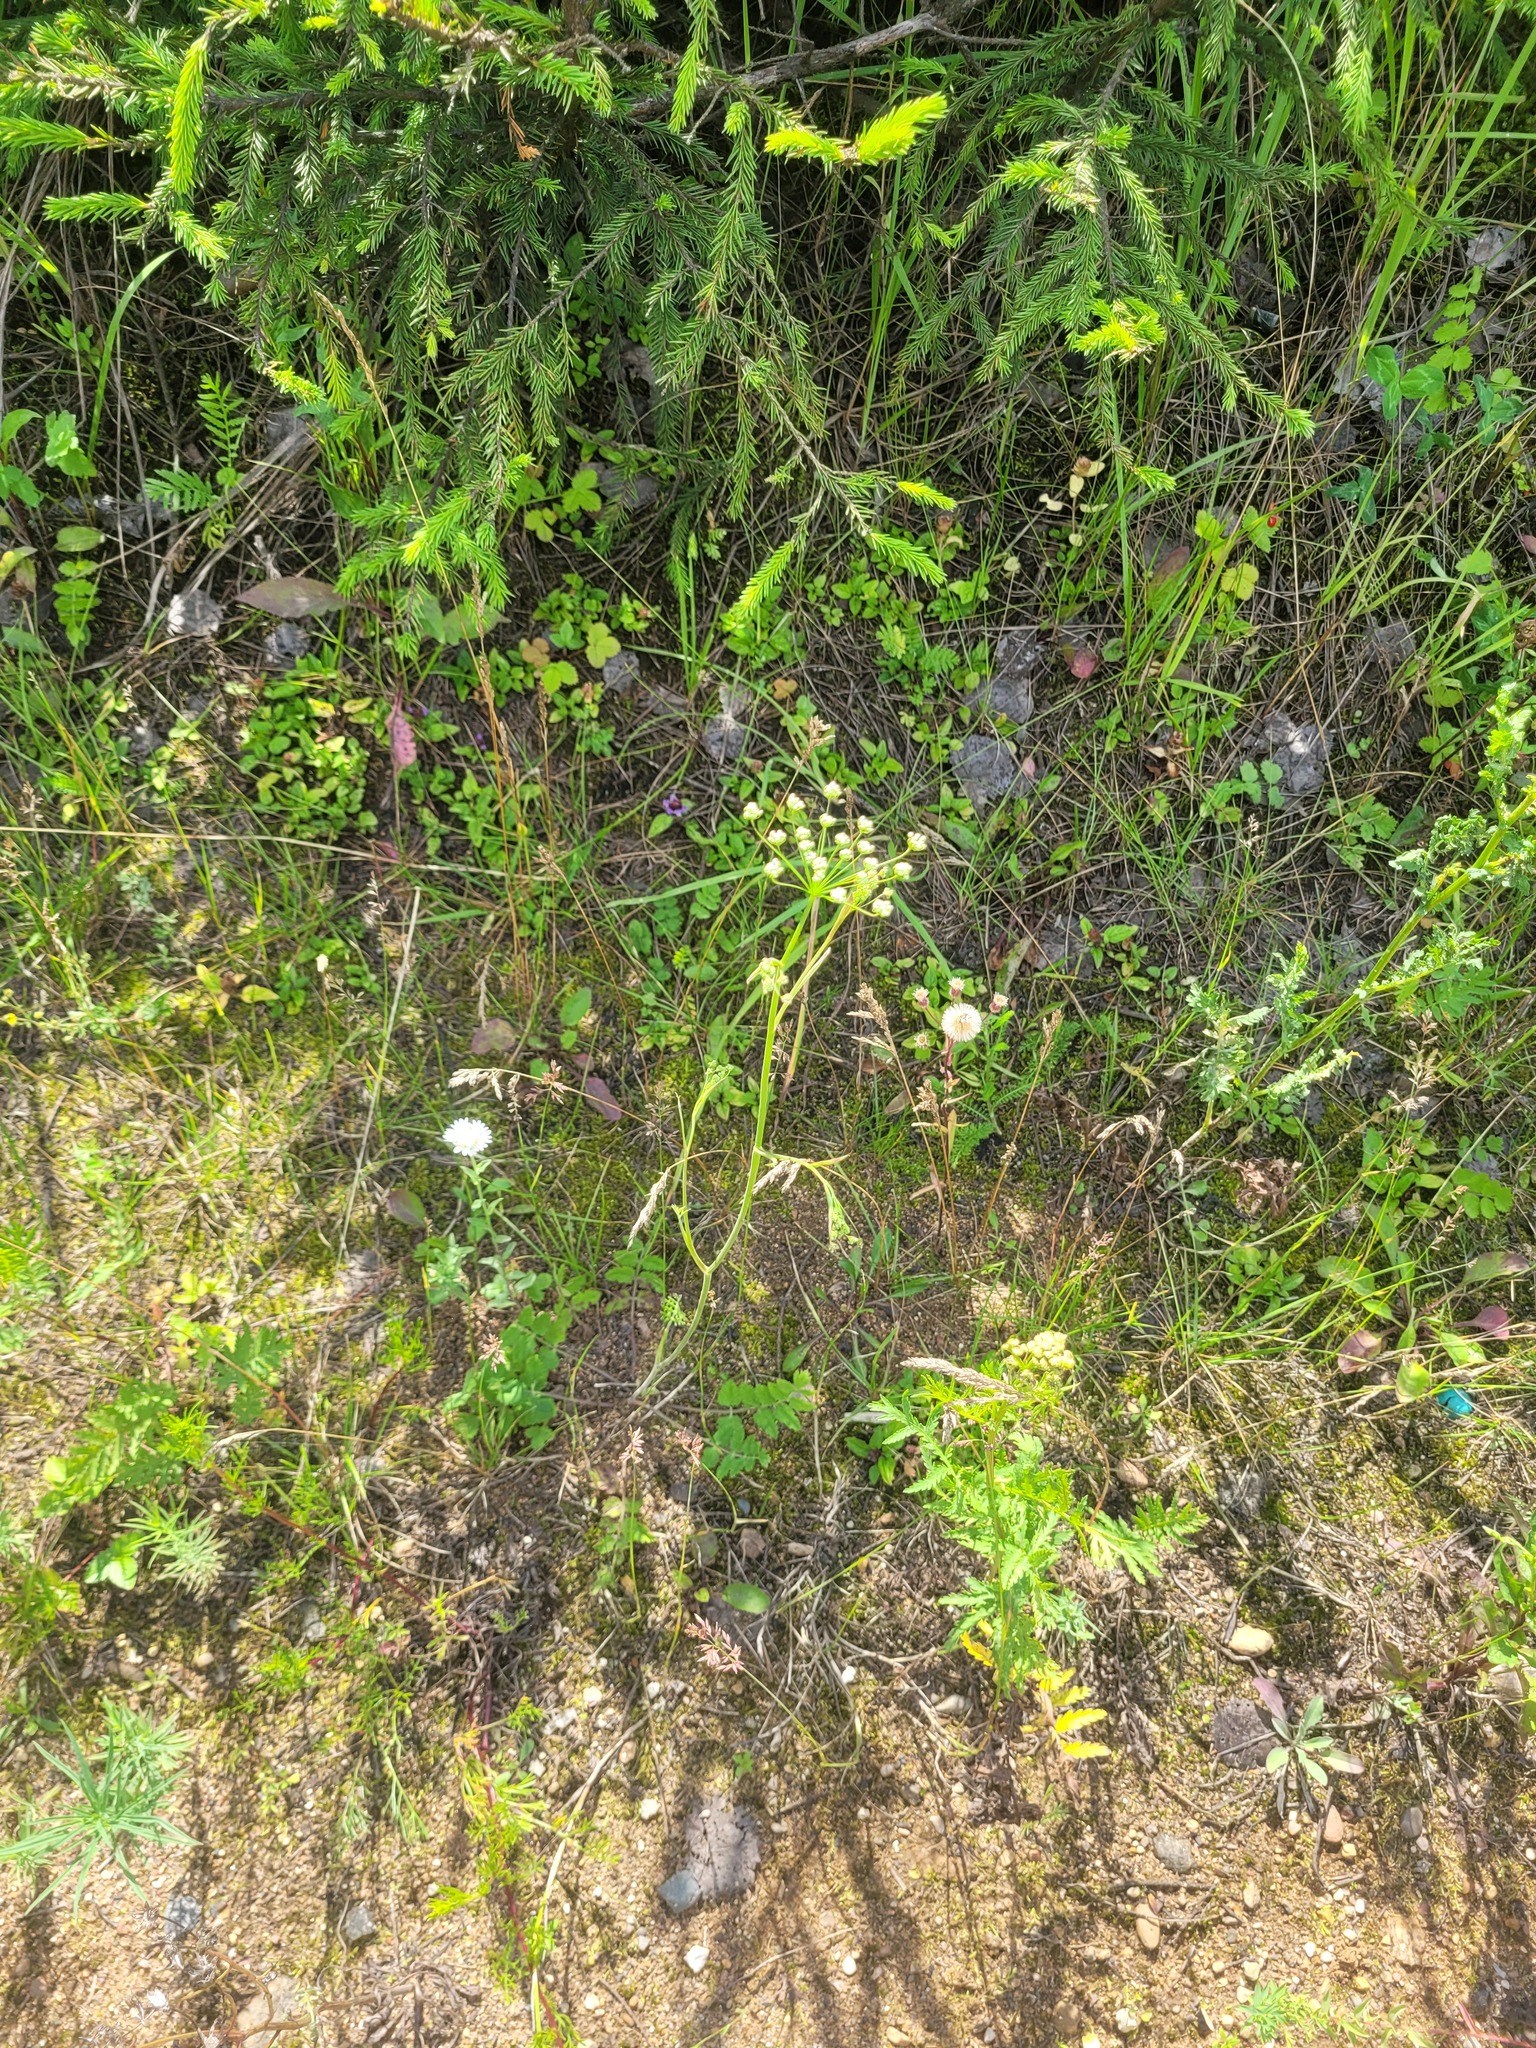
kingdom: Plantae
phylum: Tracheophyta
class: Magnoliopsida
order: Apiales
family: Apiaceae
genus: Pimpinella
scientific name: Pimpinella saxifraga
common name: Burnet-saxifrage
